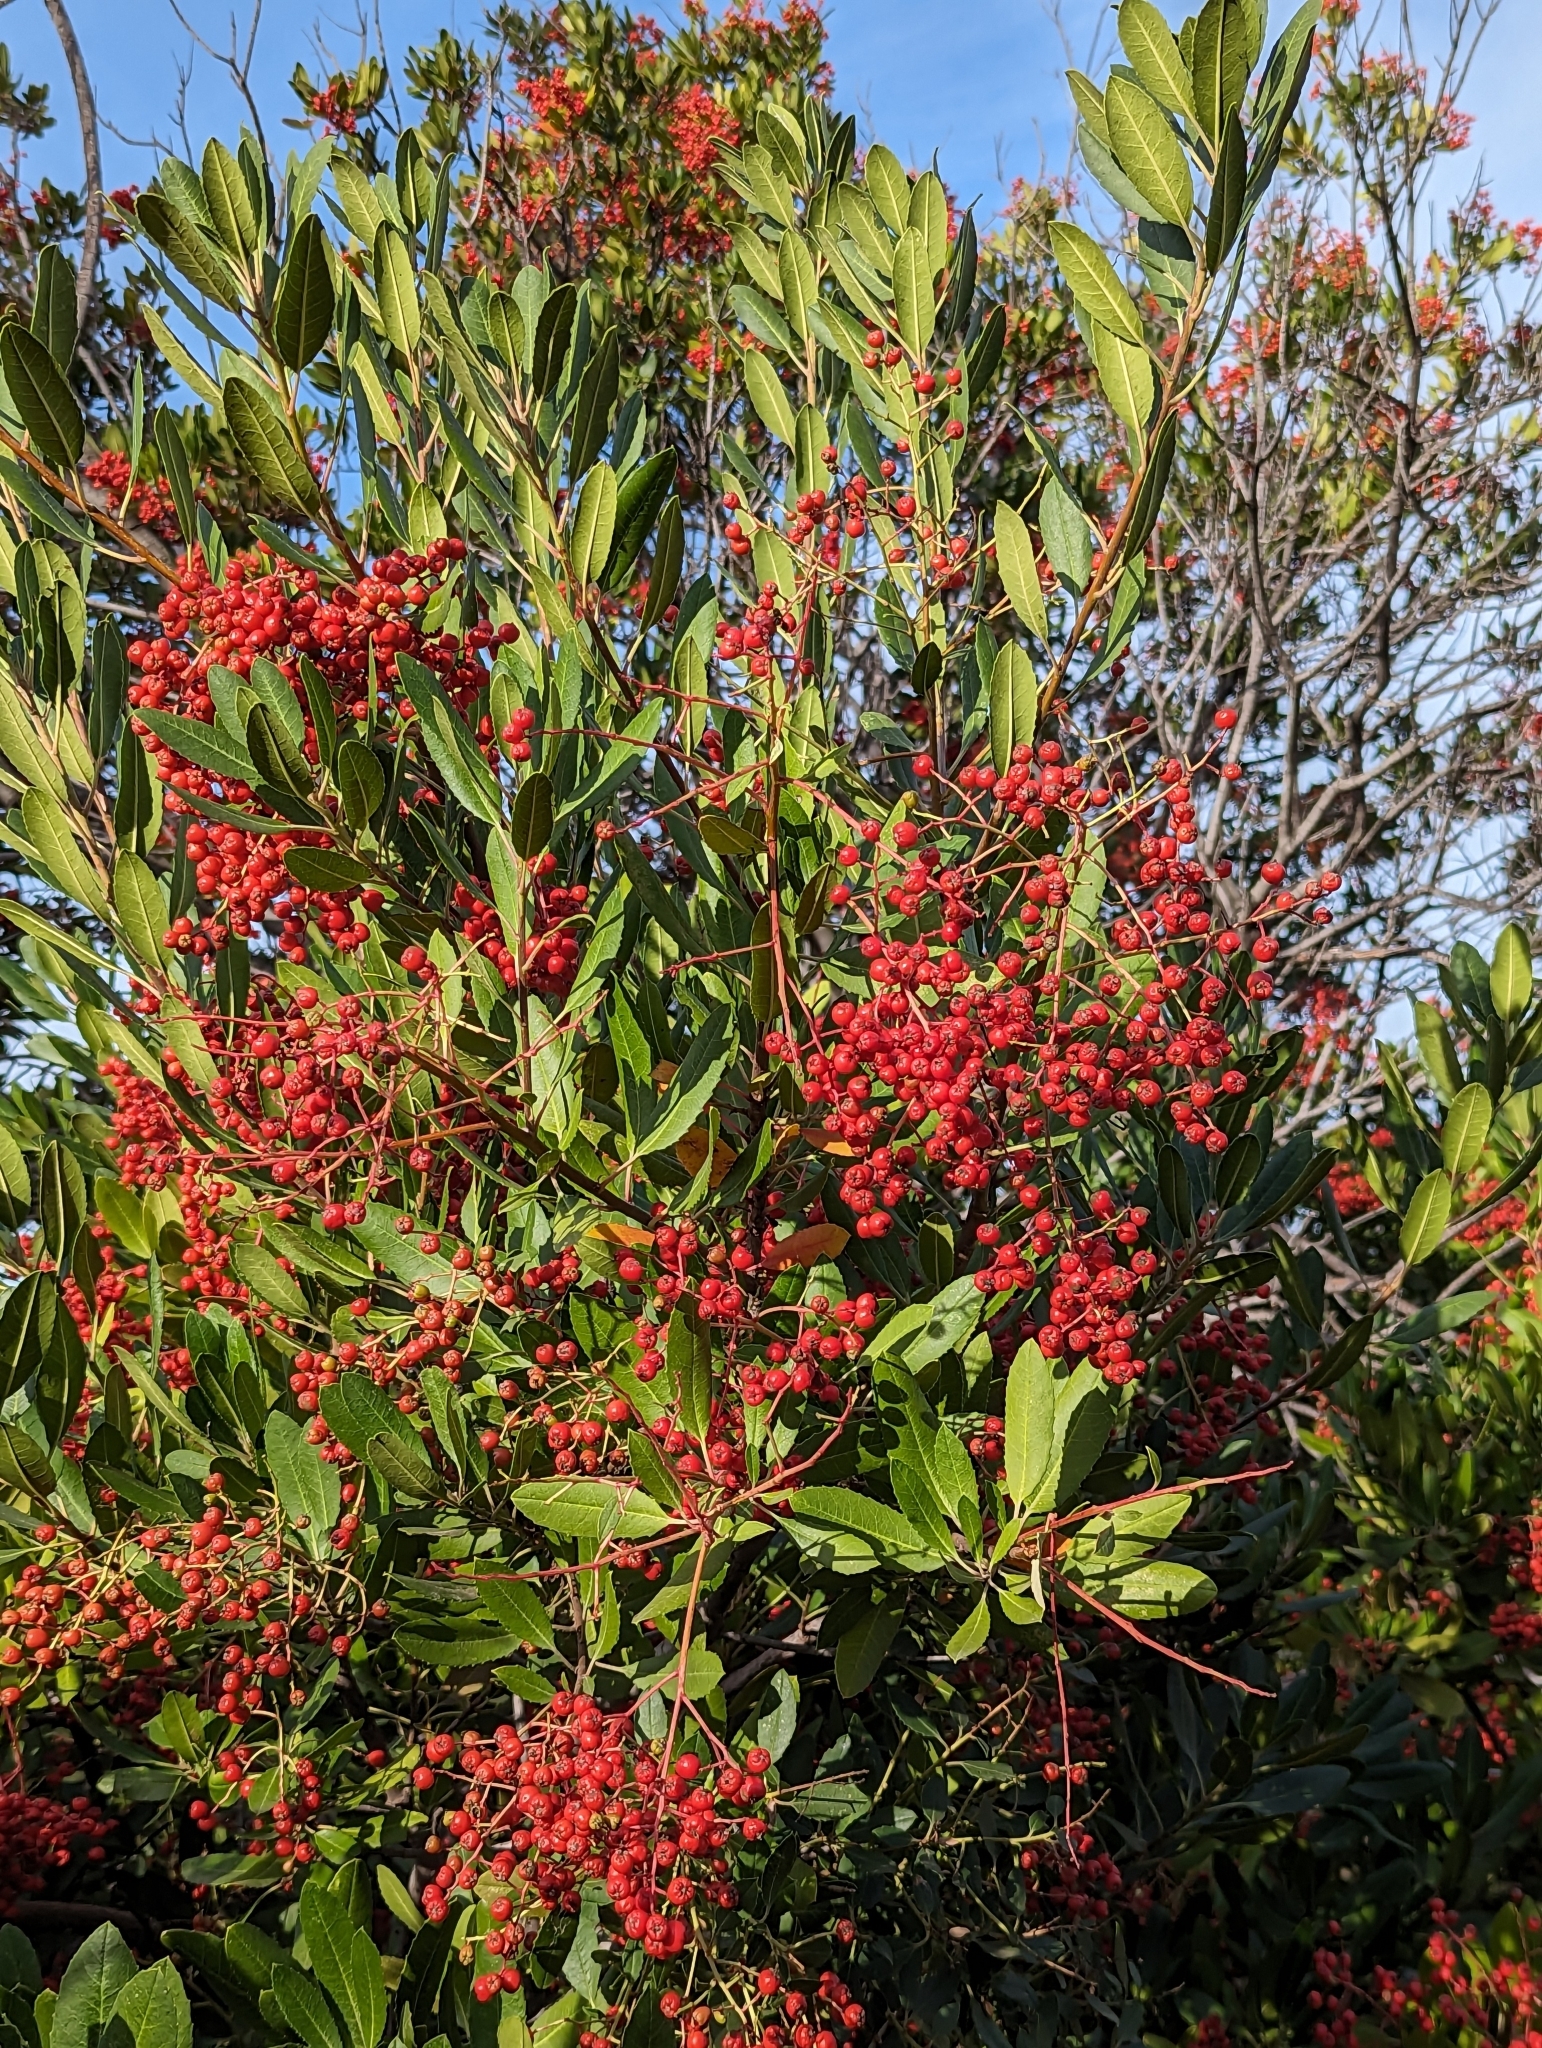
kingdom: Plantae
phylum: Tracheophyta
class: Magnoliopsida
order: Rosales
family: Rosaceae
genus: Heteromeles
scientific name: Heteromeles arbutifolia
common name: California-holly
